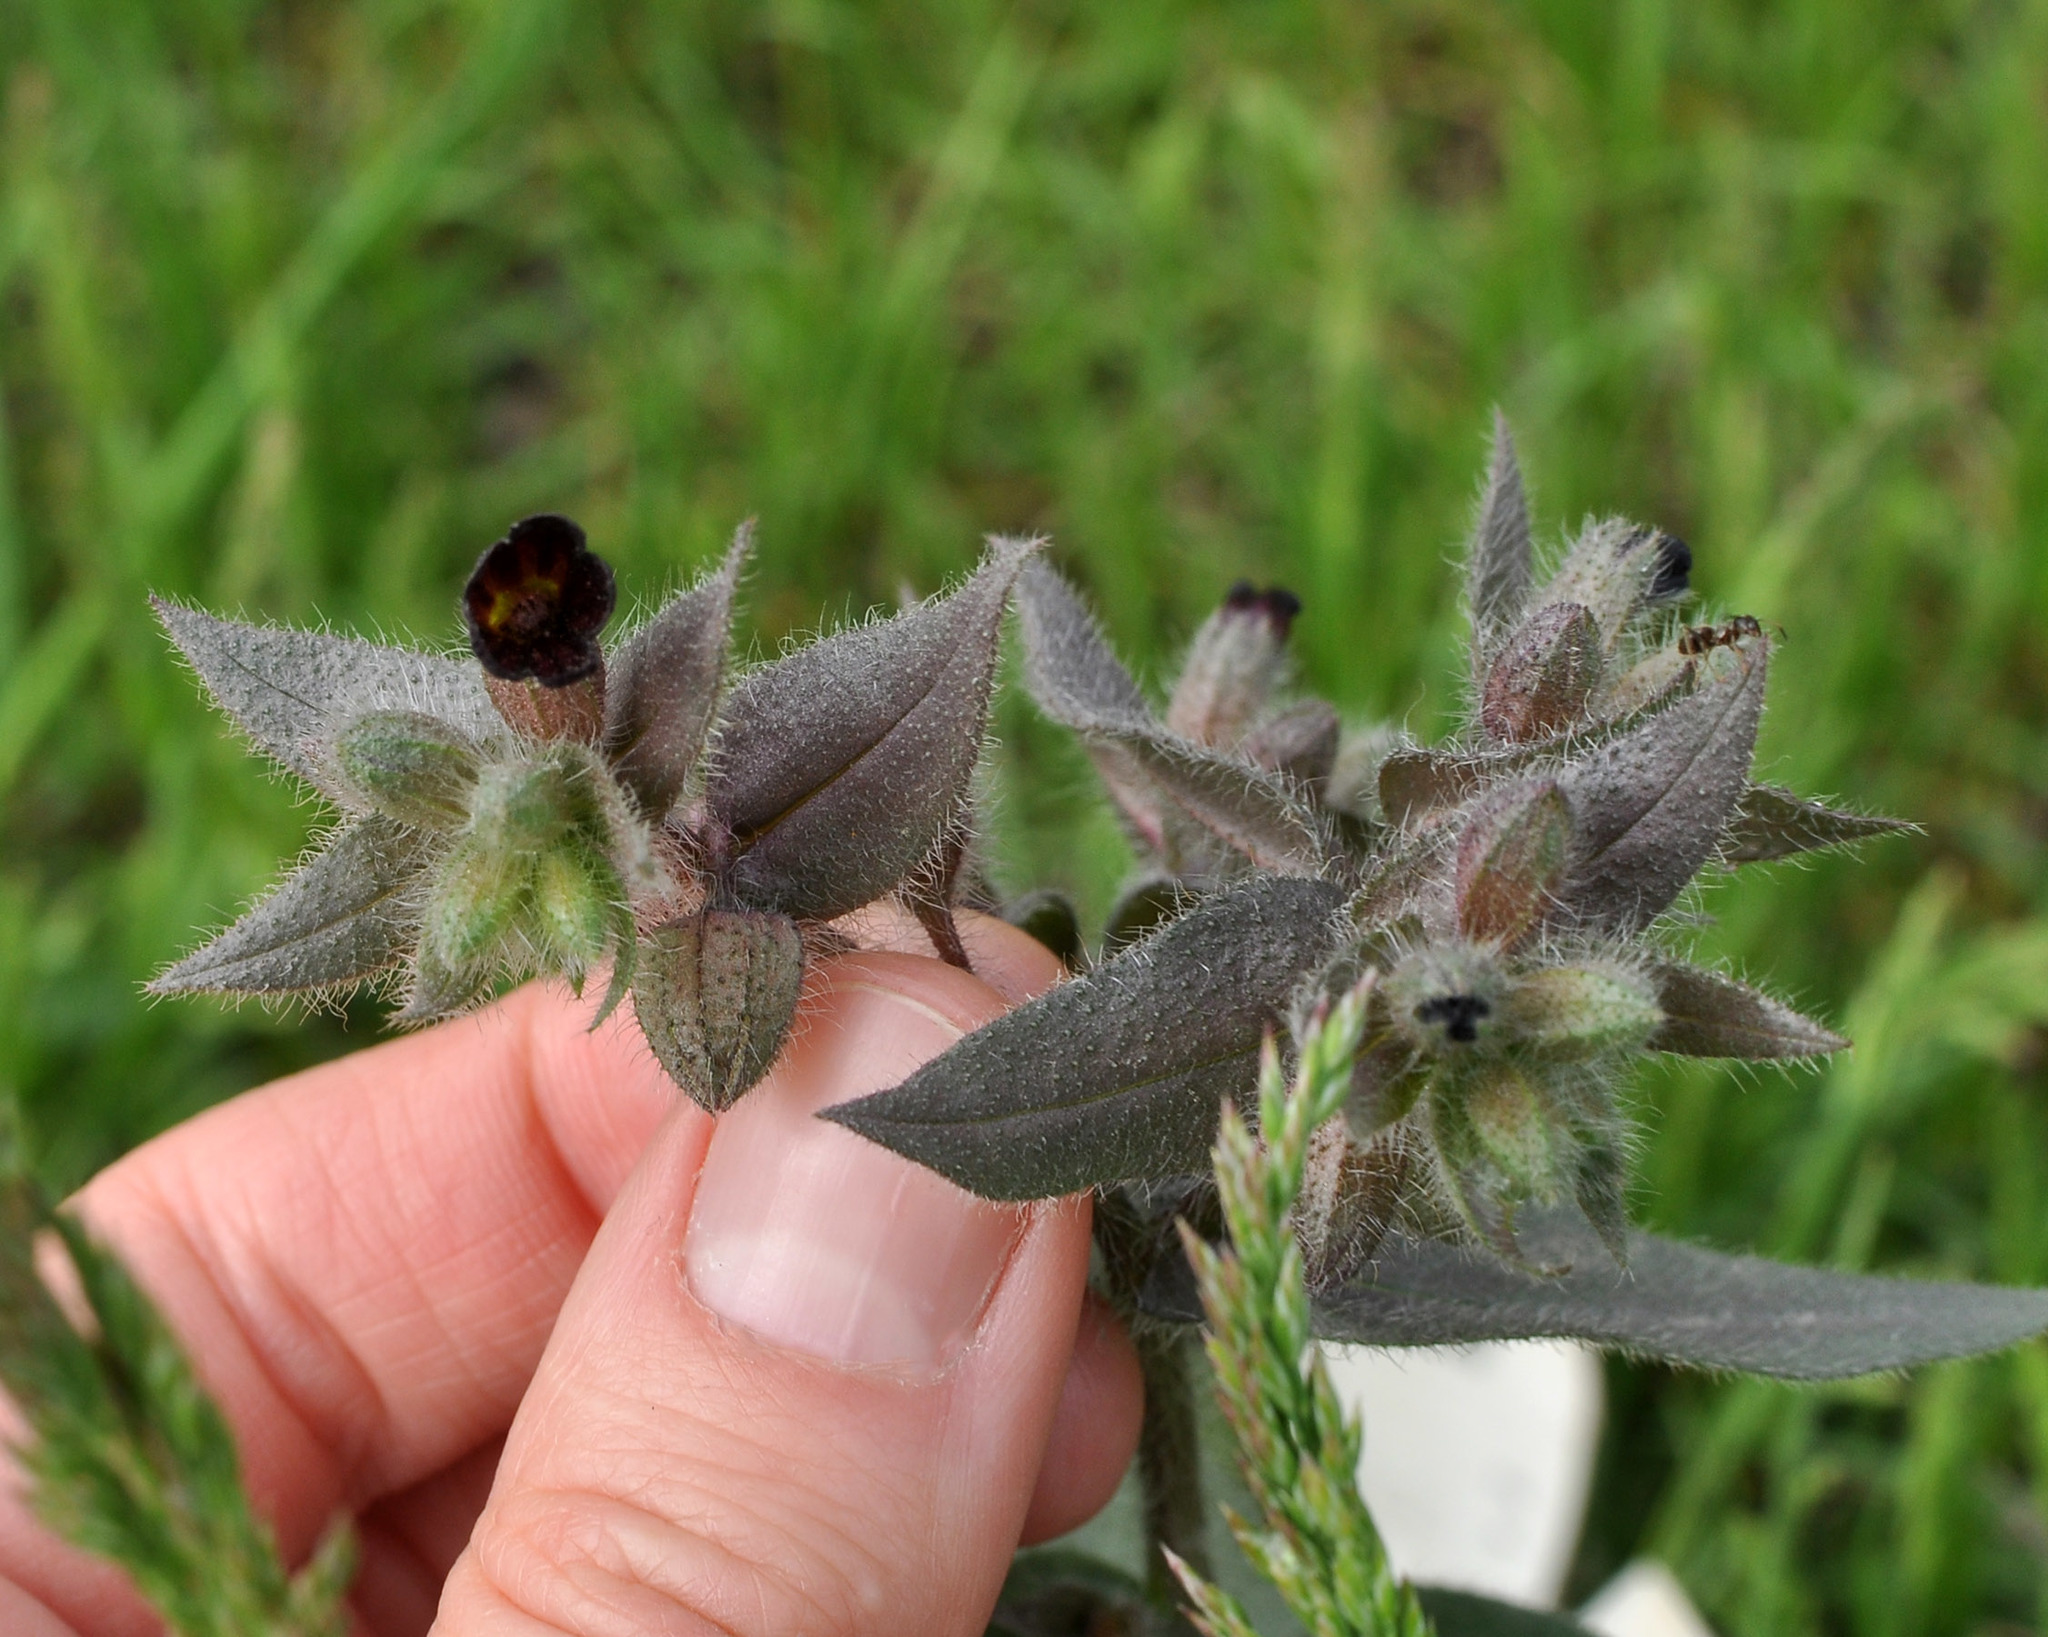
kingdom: Plantae
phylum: Tracheophyta
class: Magnoliopsida
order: Boraginales
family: Boraginaceae
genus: Nonea
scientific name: Nonea pulla
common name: Brown nonea
